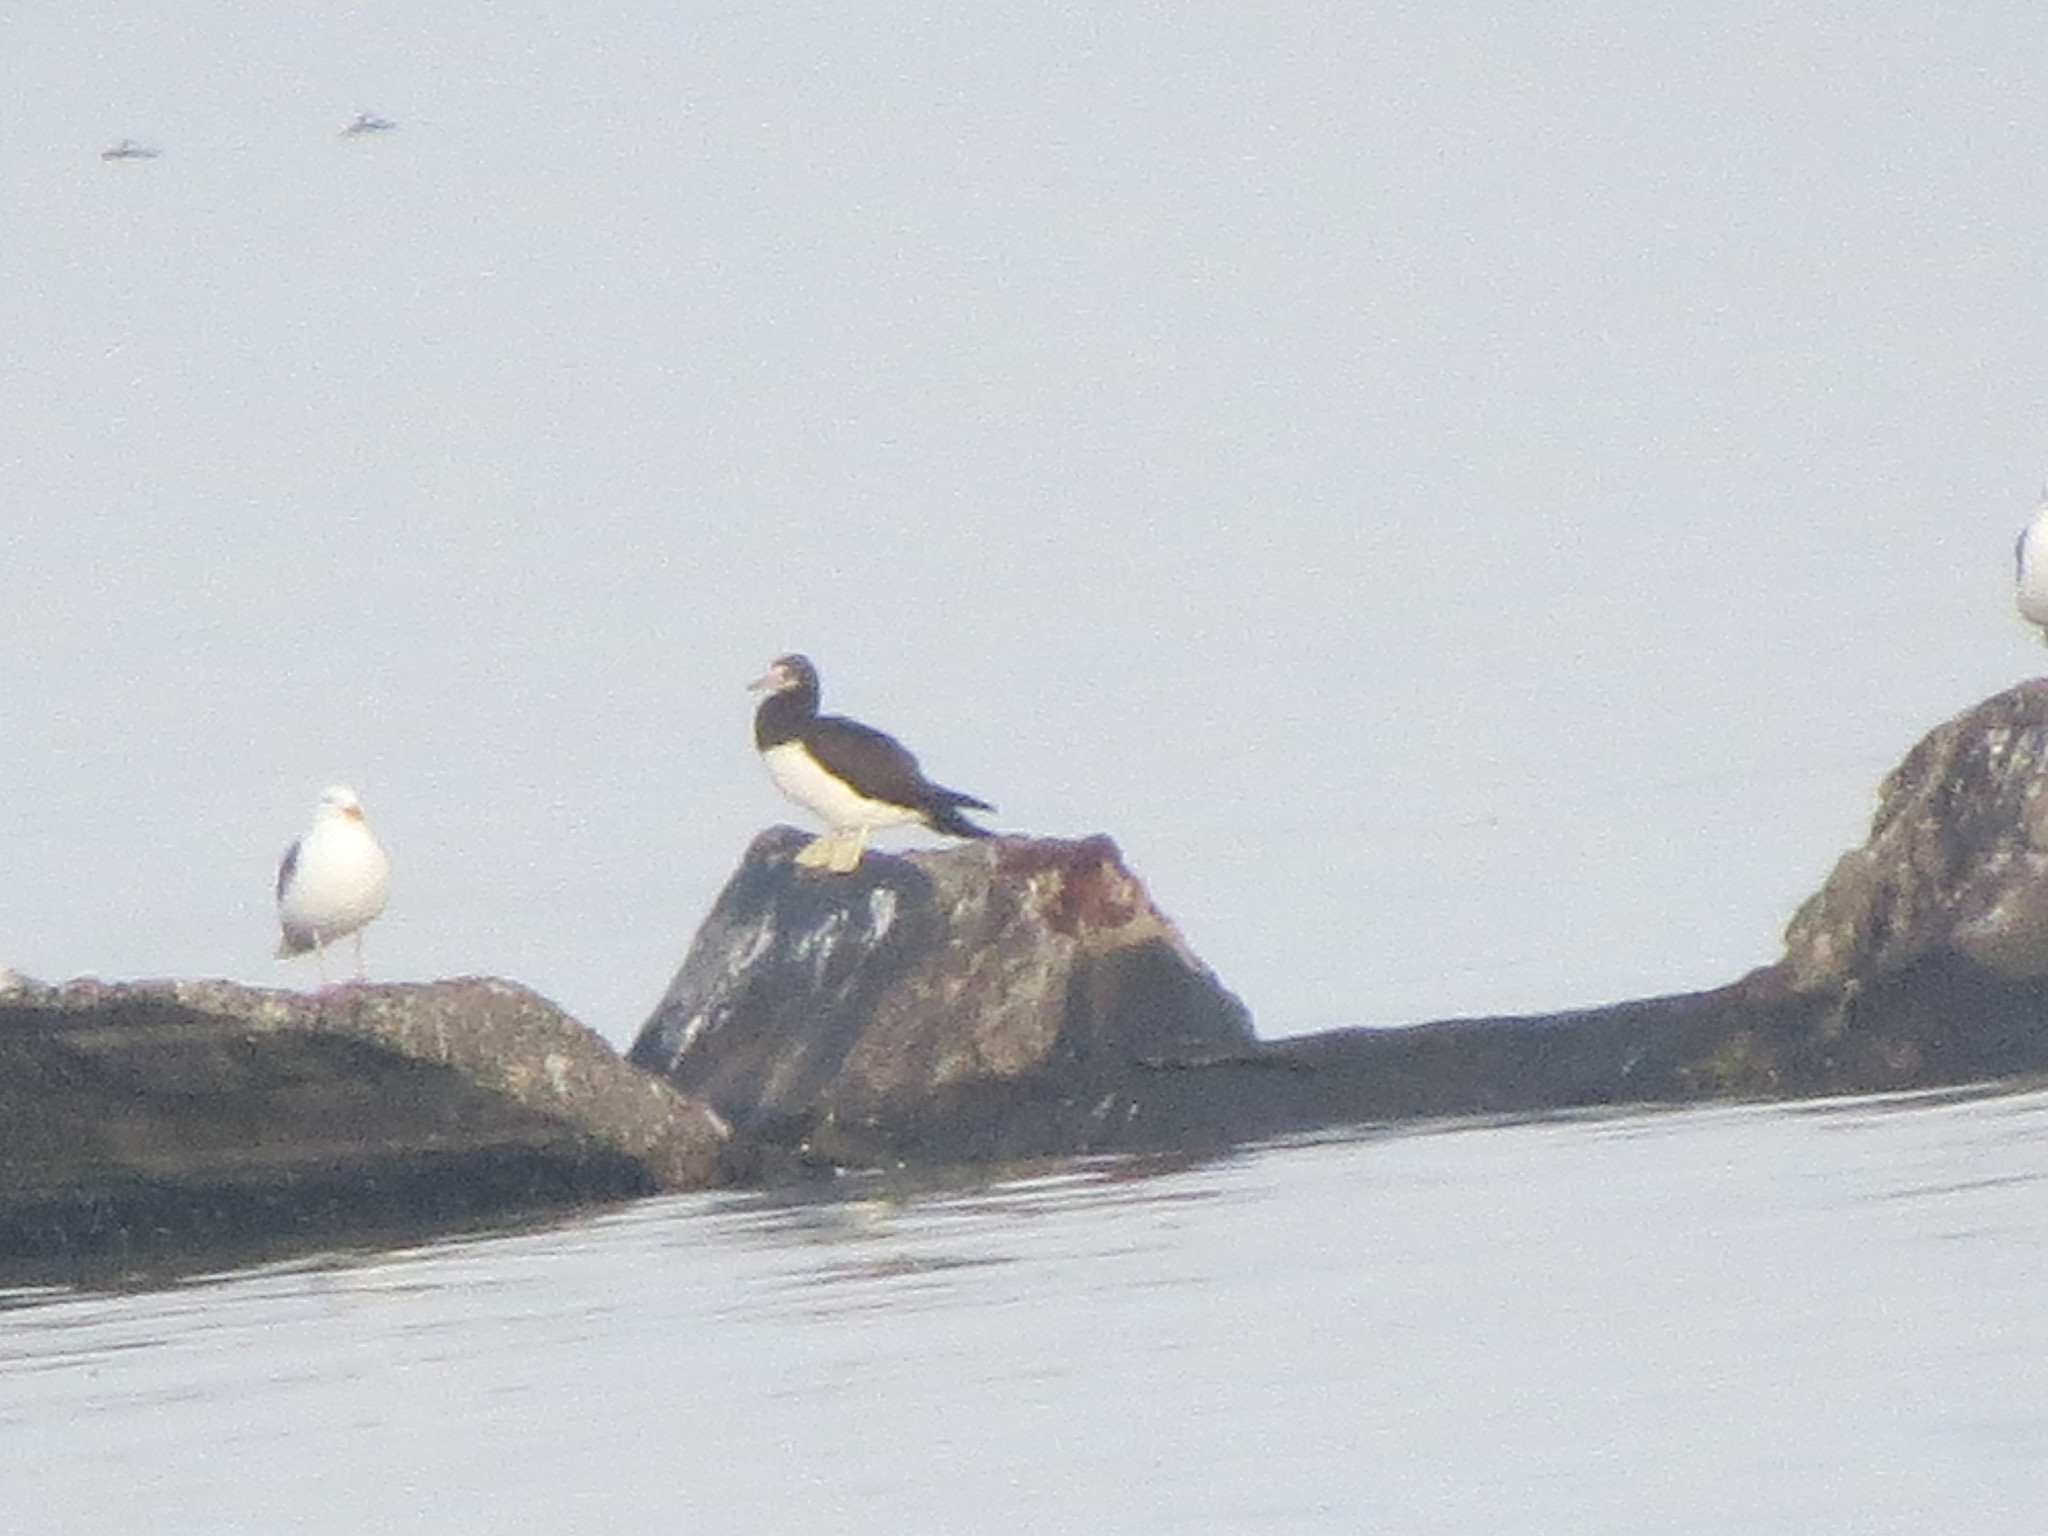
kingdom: Animalia
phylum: Chordata
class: Aves
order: Suliformes
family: Sulidae
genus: Sula
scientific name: Sula leucogaster
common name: Brown booby
